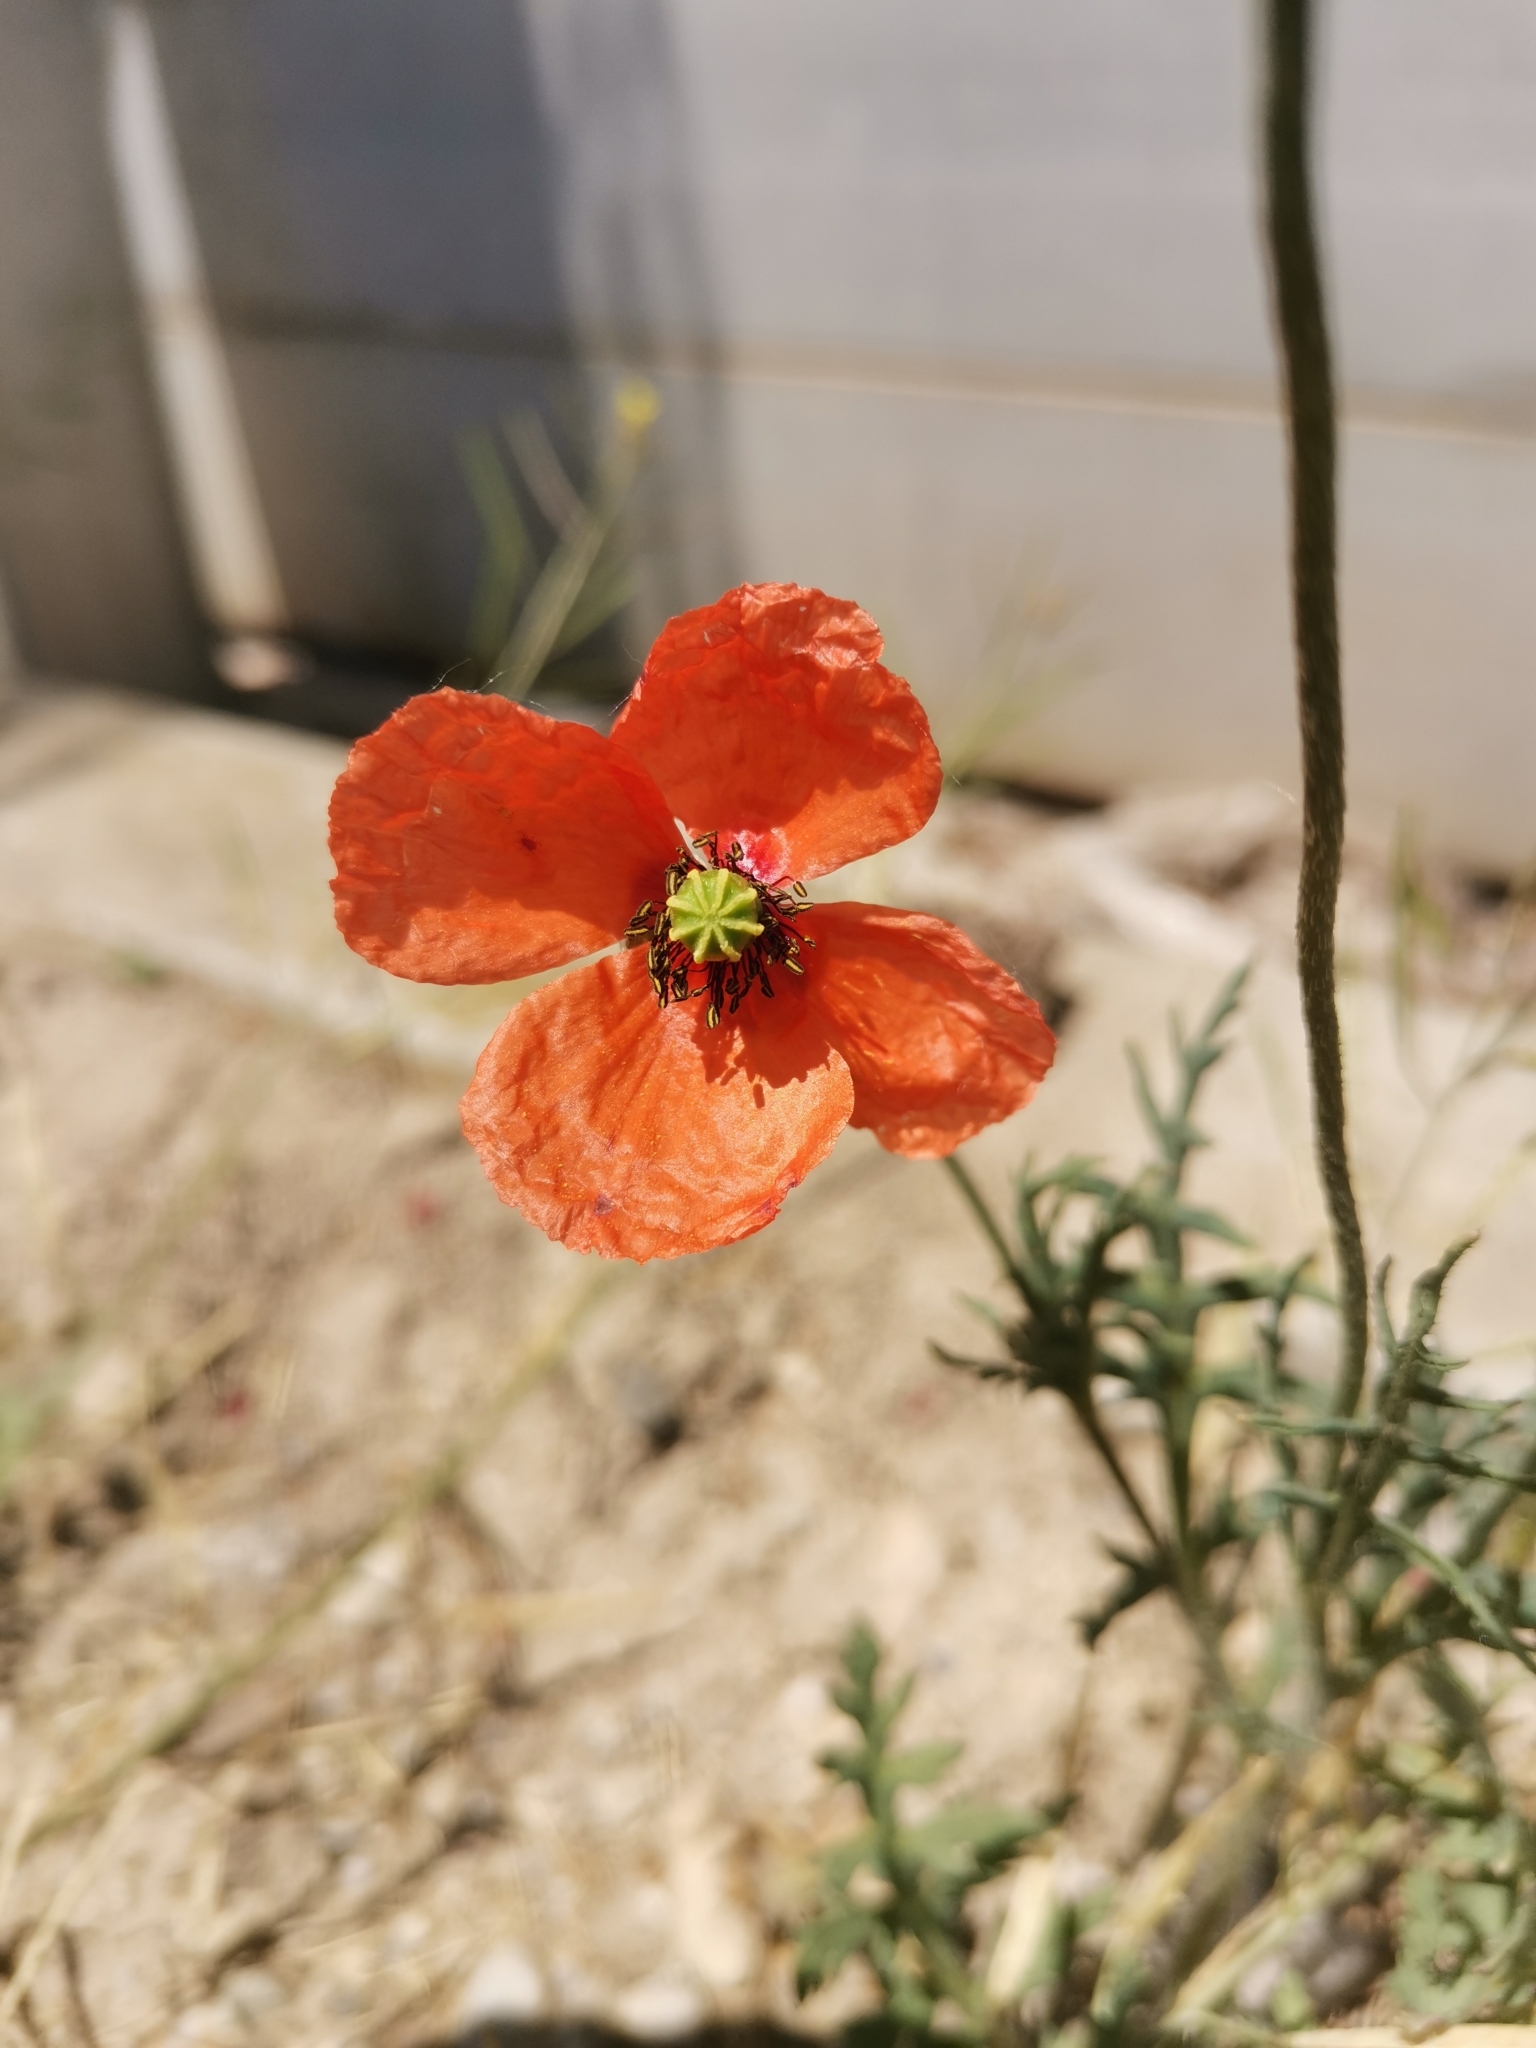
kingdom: Plantae
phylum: Tracheophyta
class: Magnoliopsida
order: Ranunculales
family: Papaveraceae
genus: Papaver
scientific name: Papaver dubium
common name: Long-headed poppy
